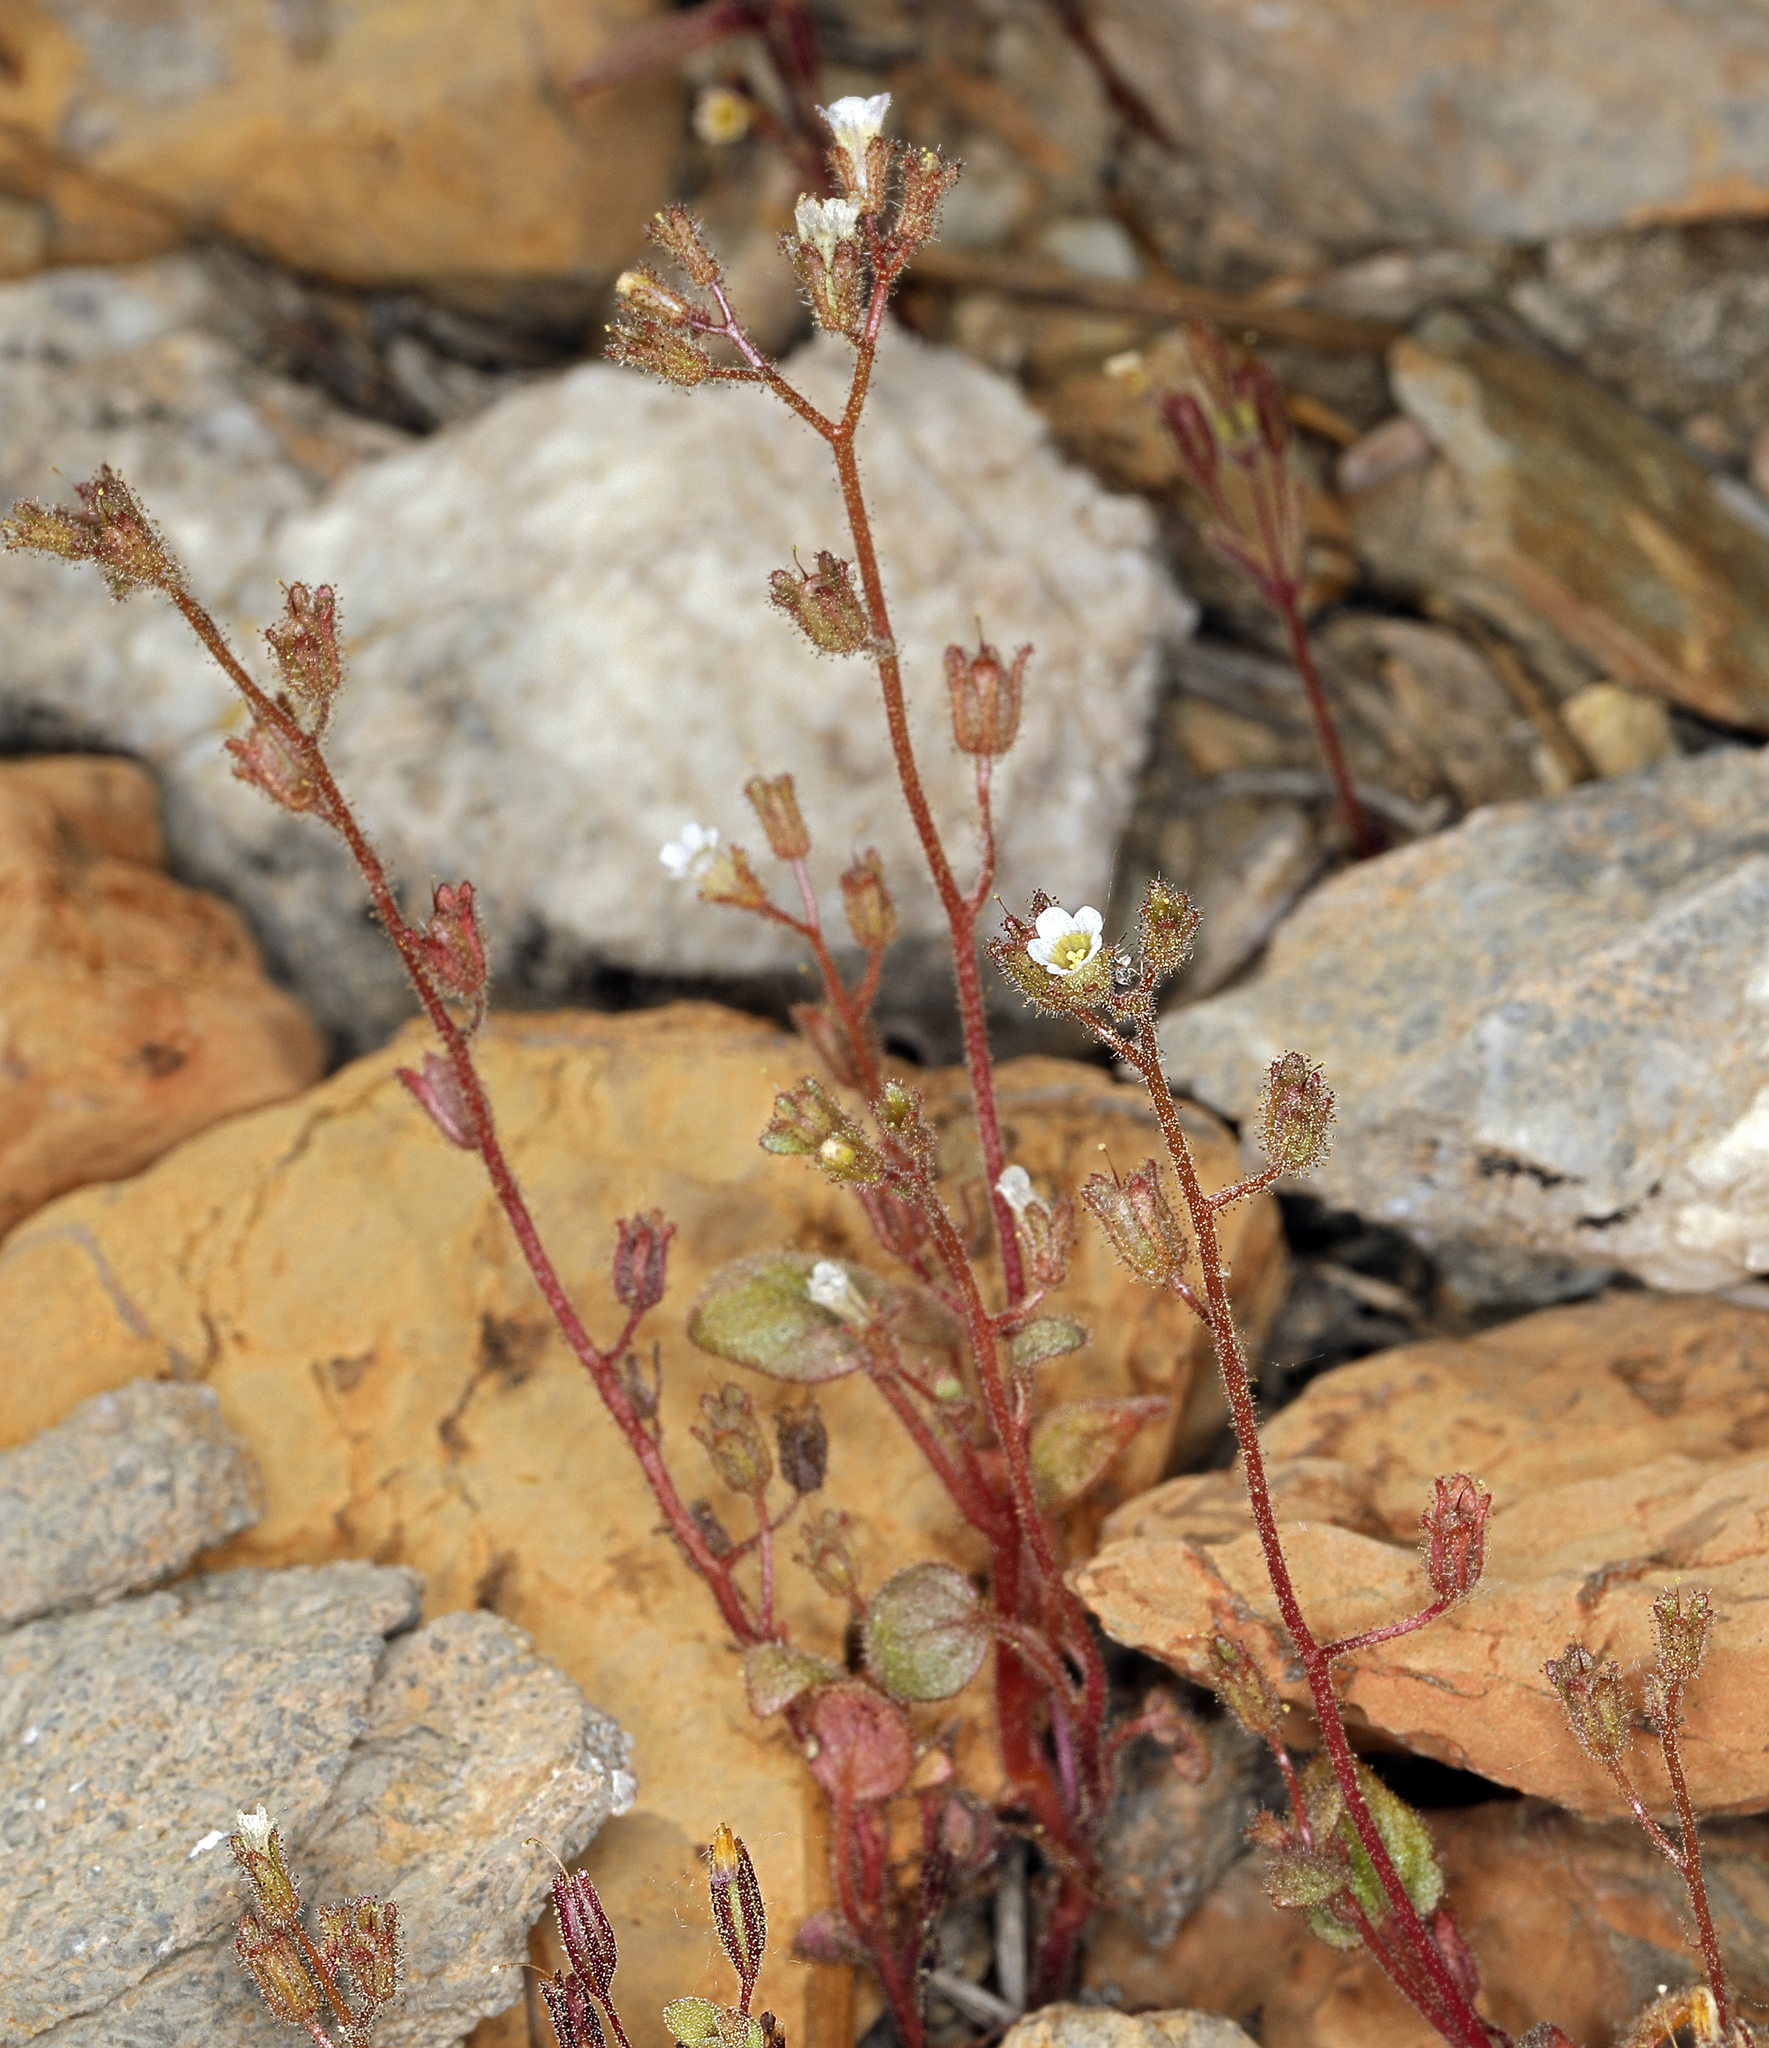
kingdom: Plantae
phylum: Tracheophyta
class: Magnoliopsida
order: Boraginales
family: Hydrophyllaceae
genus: Phacelia
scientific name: Phacelia barnebyana
